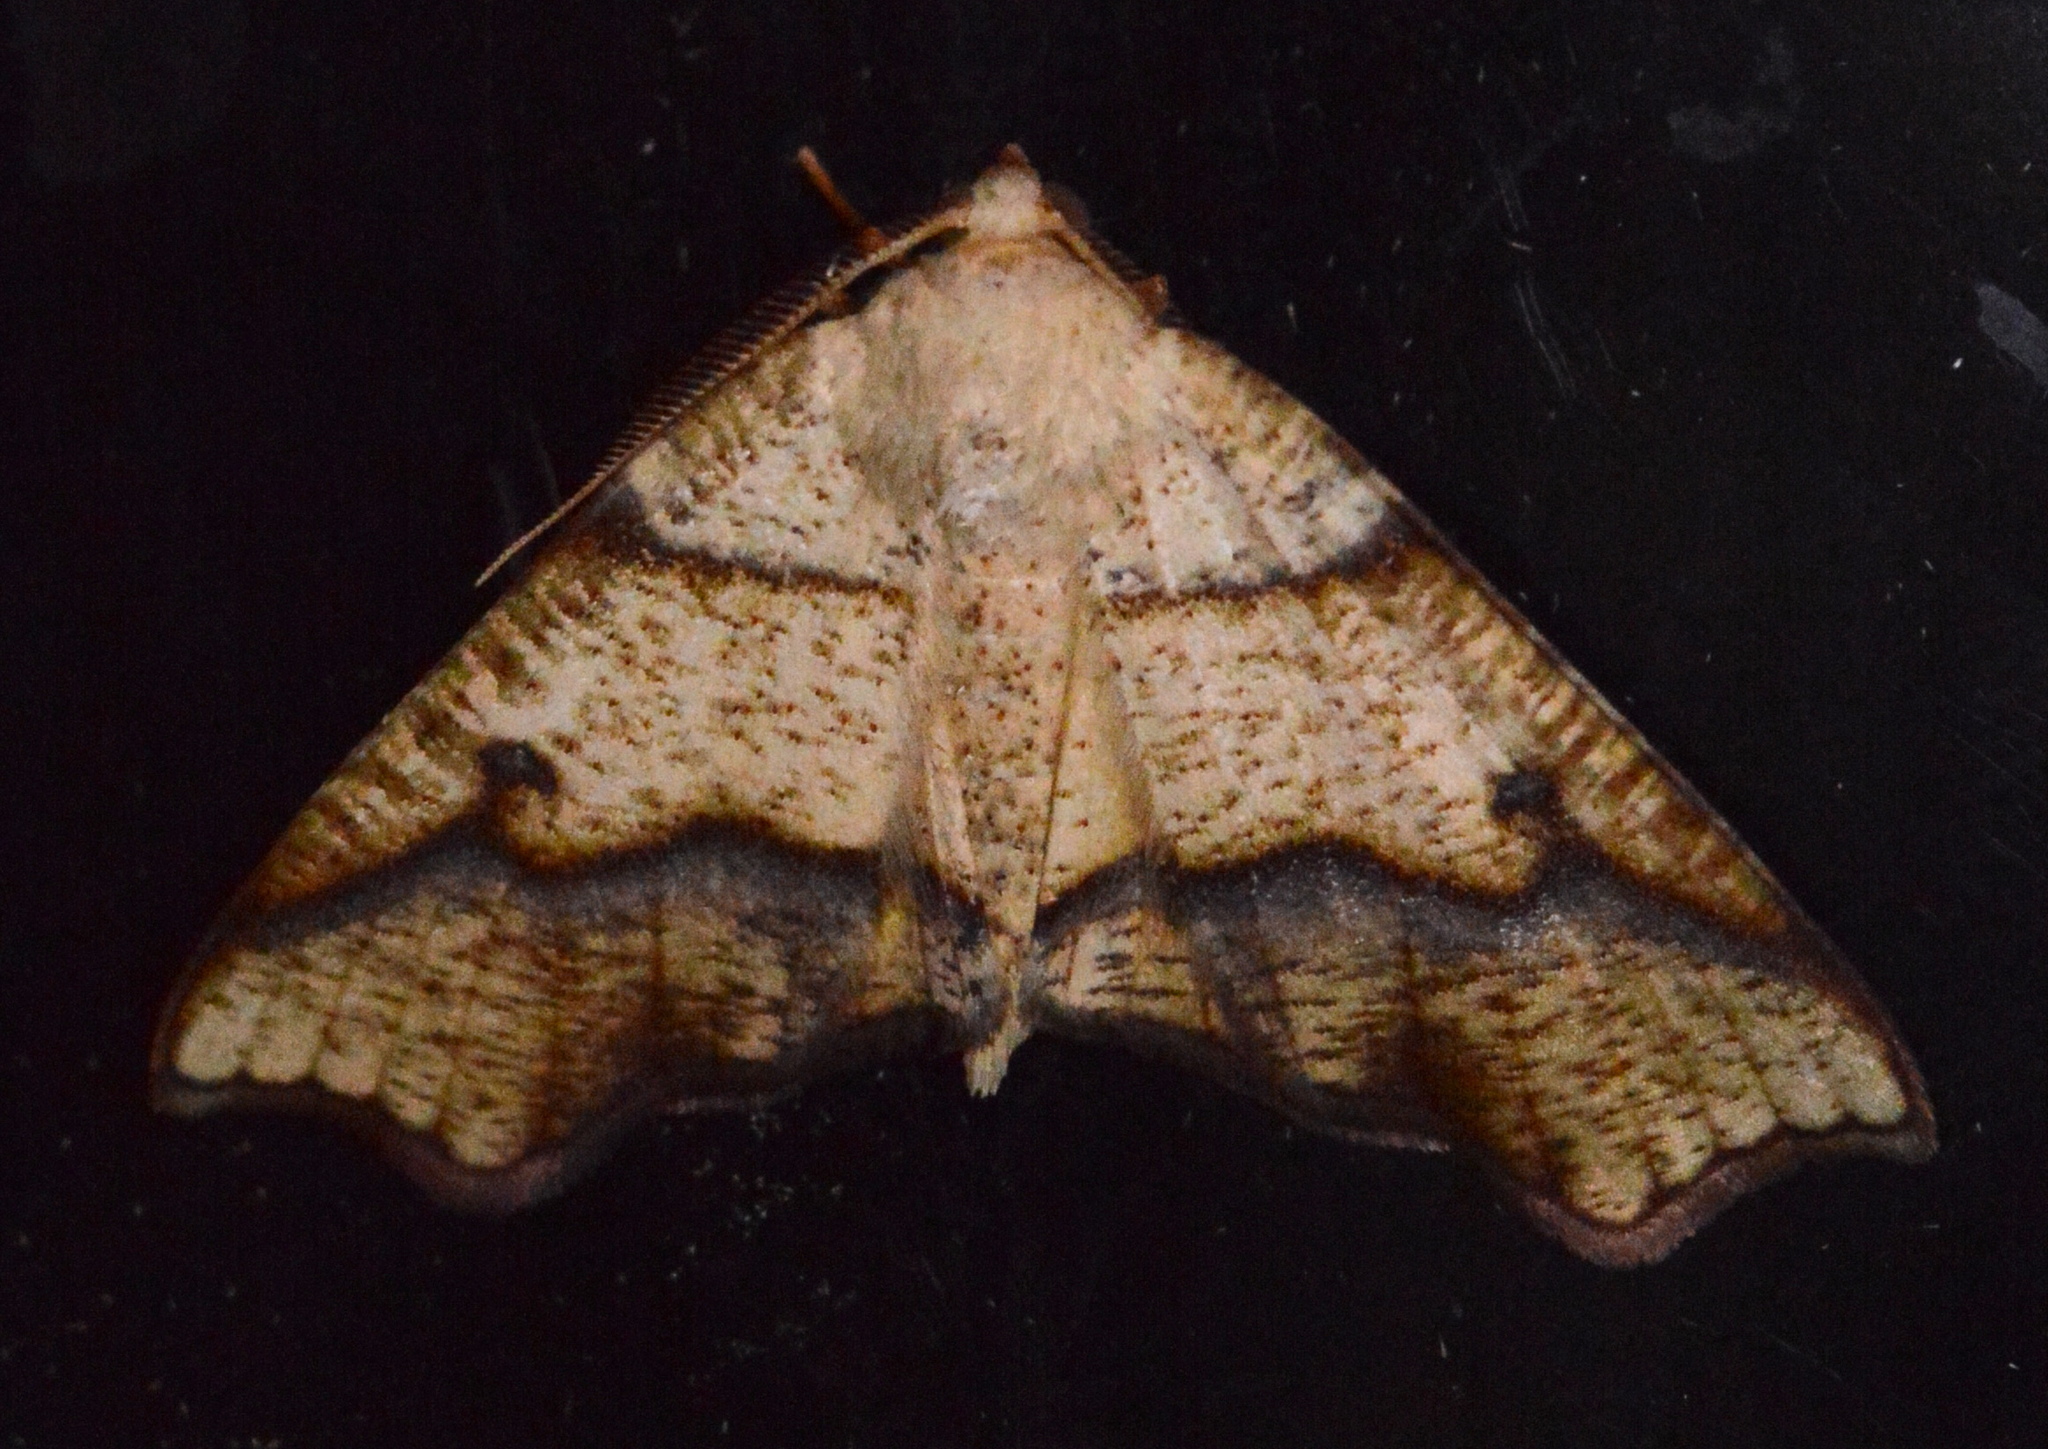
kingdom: Animalia
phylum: Arthropoda
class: Insecta
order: Lepidoptera
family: Geometridae
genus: Plagodis
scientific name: Plagodis alcoolaria
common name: Hollow-spotted plagodis
